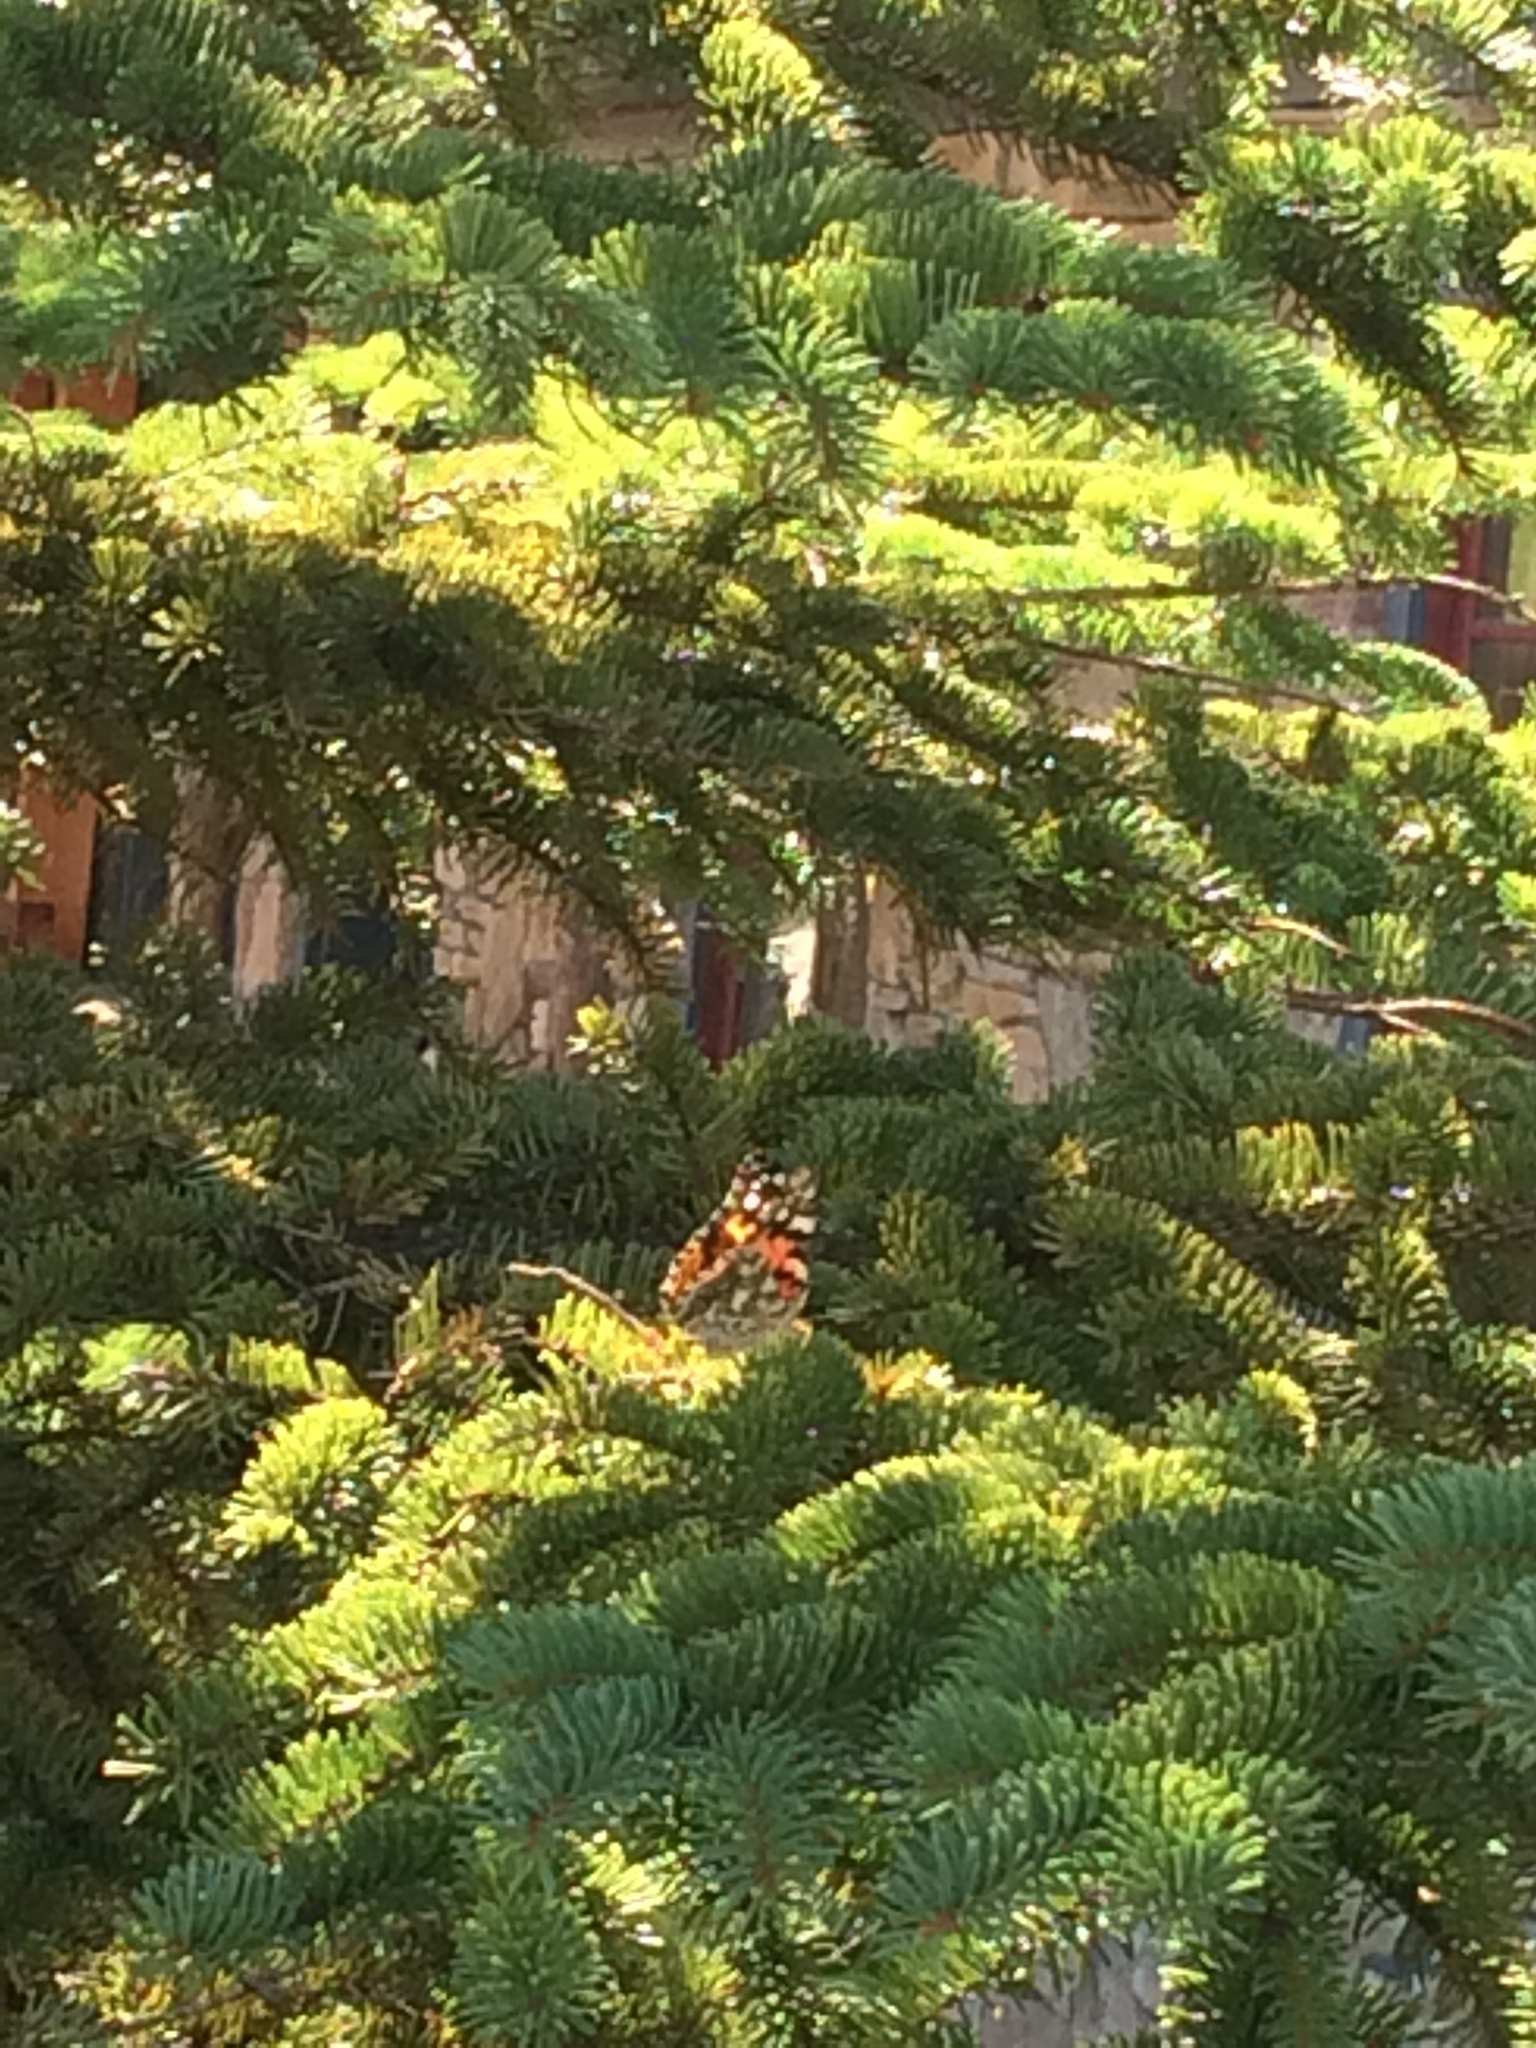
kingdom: Animalia
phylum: Arthropoda
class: Insecta
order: Lepidoptera
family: Nymphalidae
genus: Vanessa
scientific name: Vanessa cardui
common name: Painted lady
